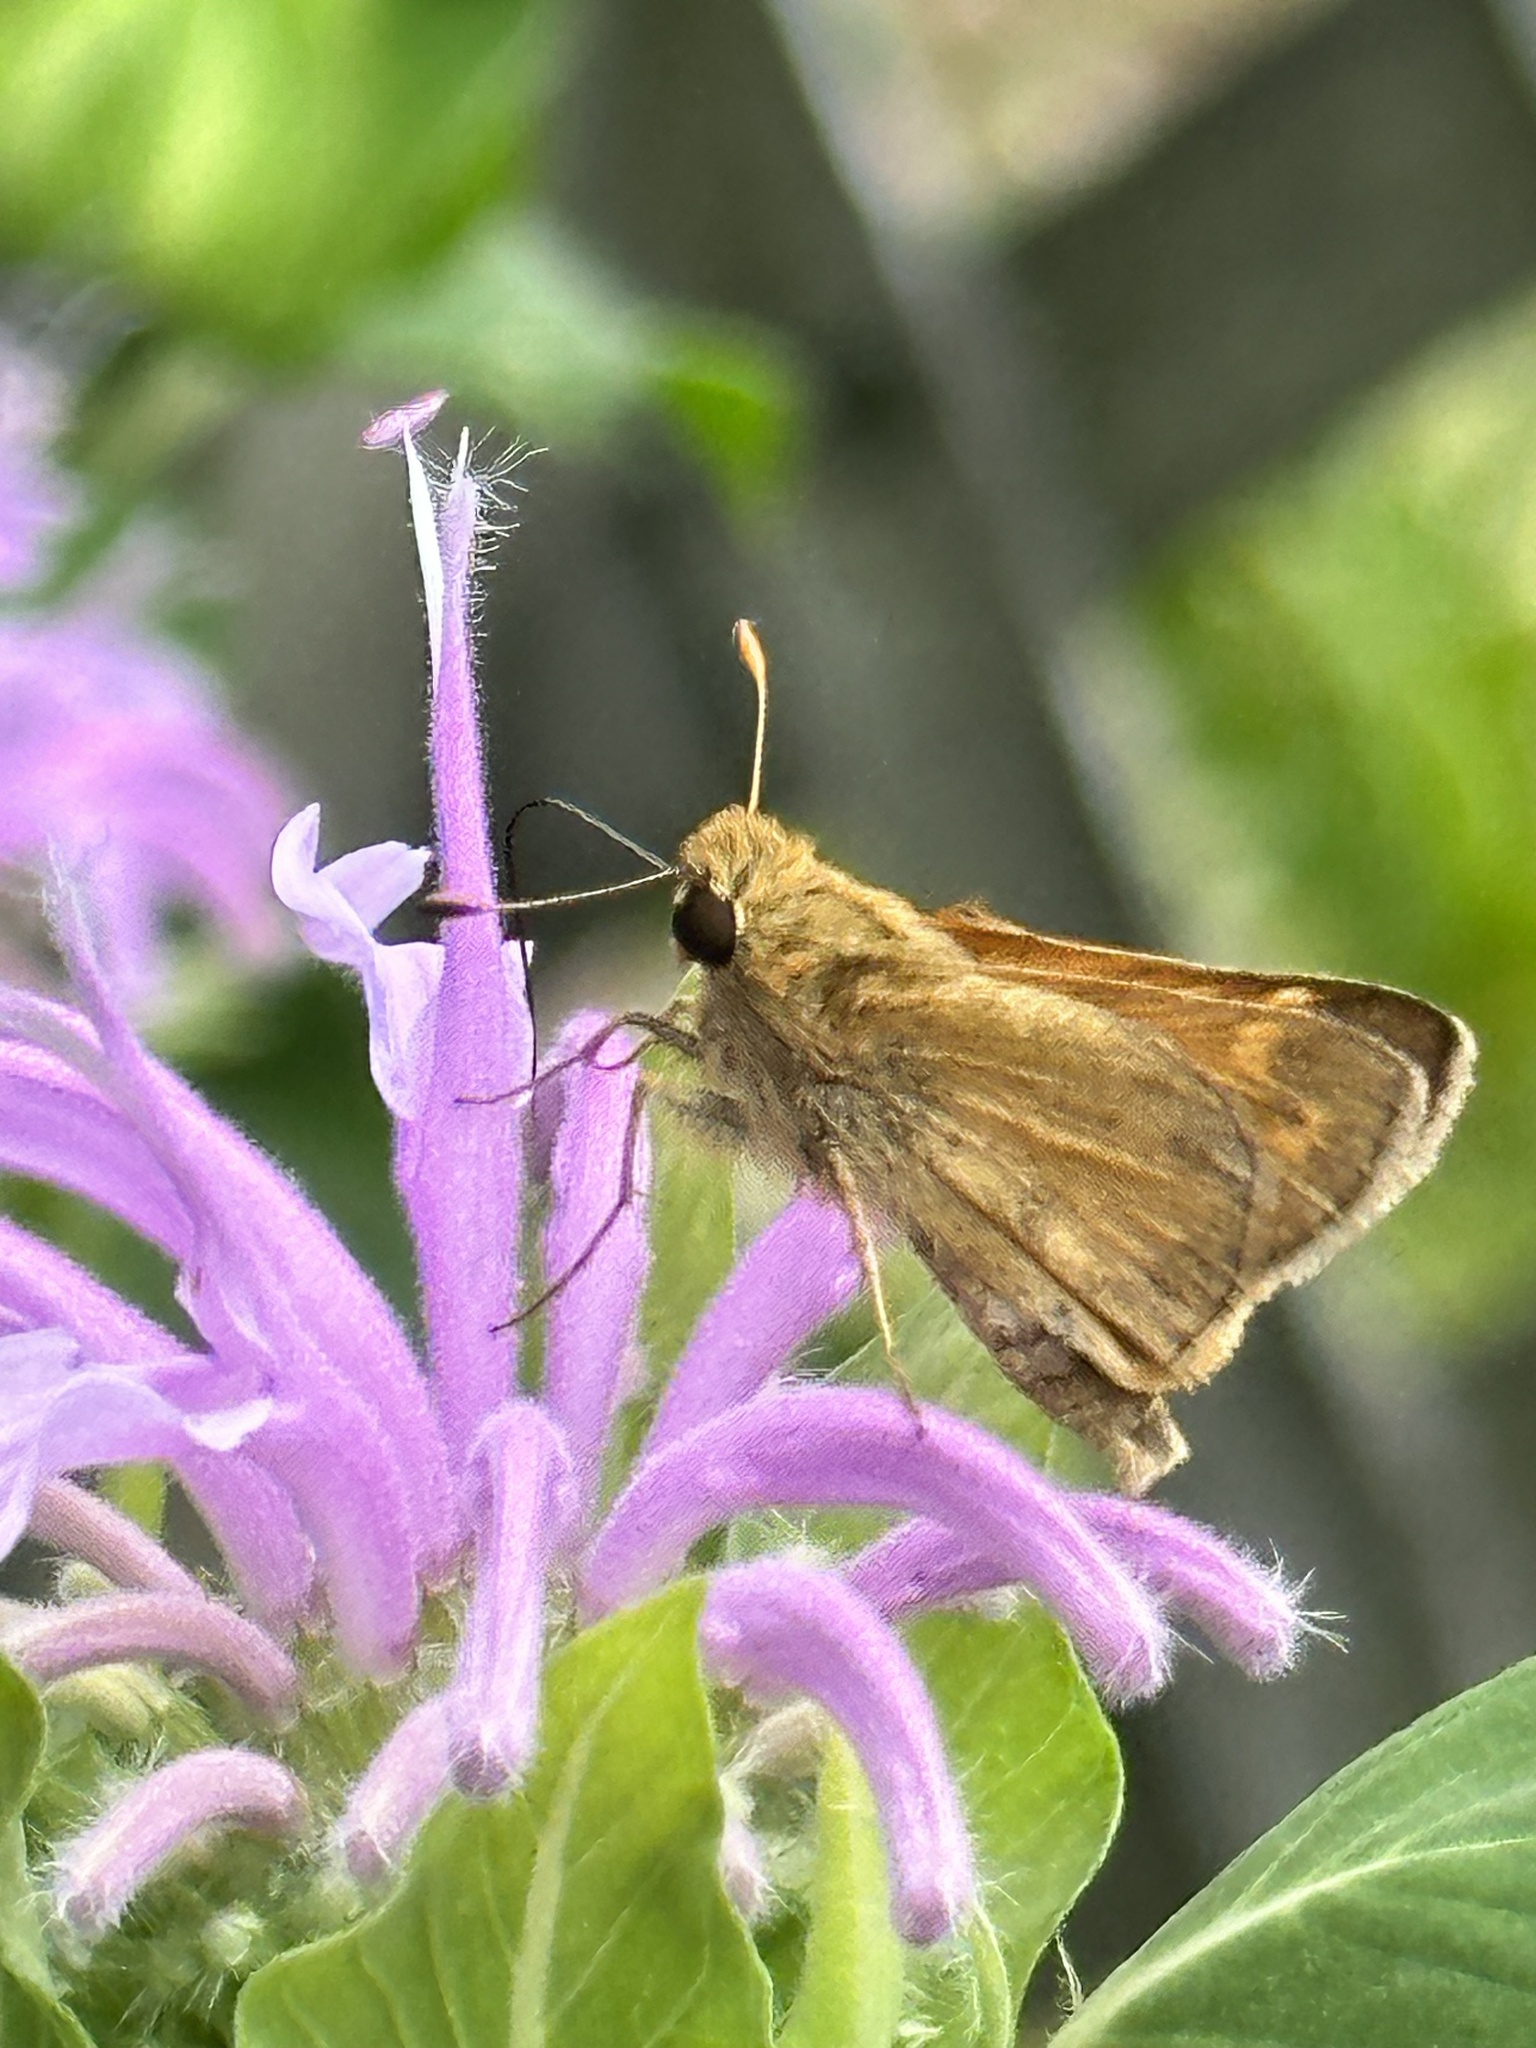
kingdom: Animalia
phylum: Arthropoda
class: Insecta
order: Lepidoptera
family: Hesperiidae
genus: Atalopedes
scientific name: Atalopedes
